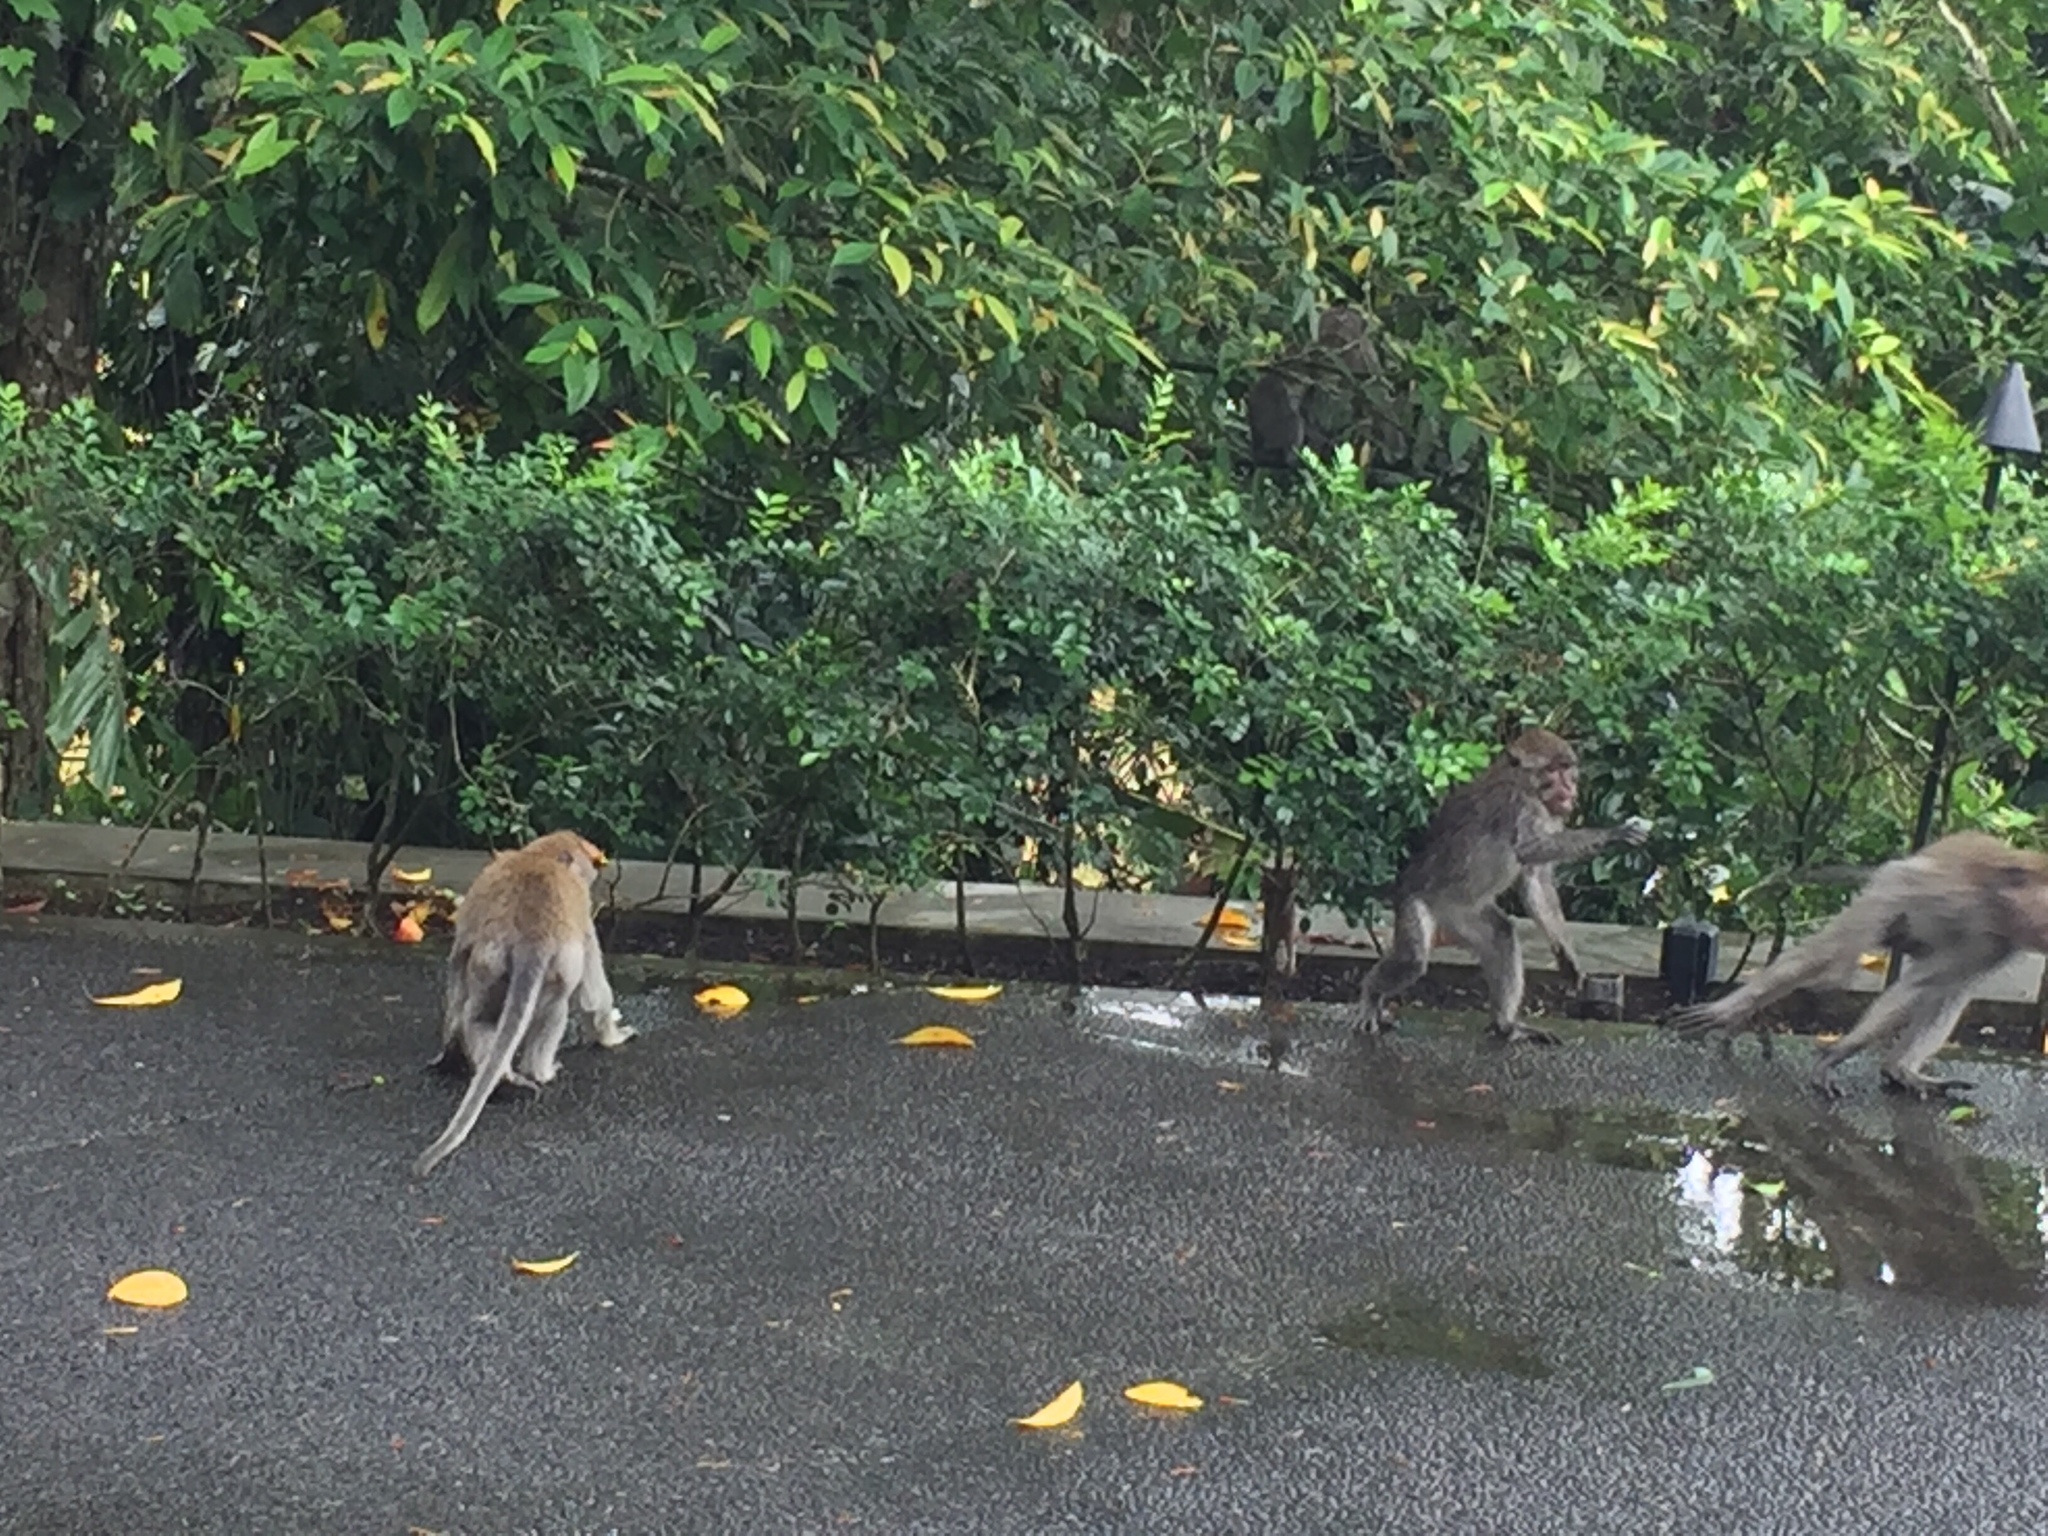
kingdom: Animalia
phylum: Chordata
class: Mammalia
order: Primates
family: Cercopithecidae
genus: Macaca
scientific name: Macaca fascicularis
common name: Crab-eating macaque
